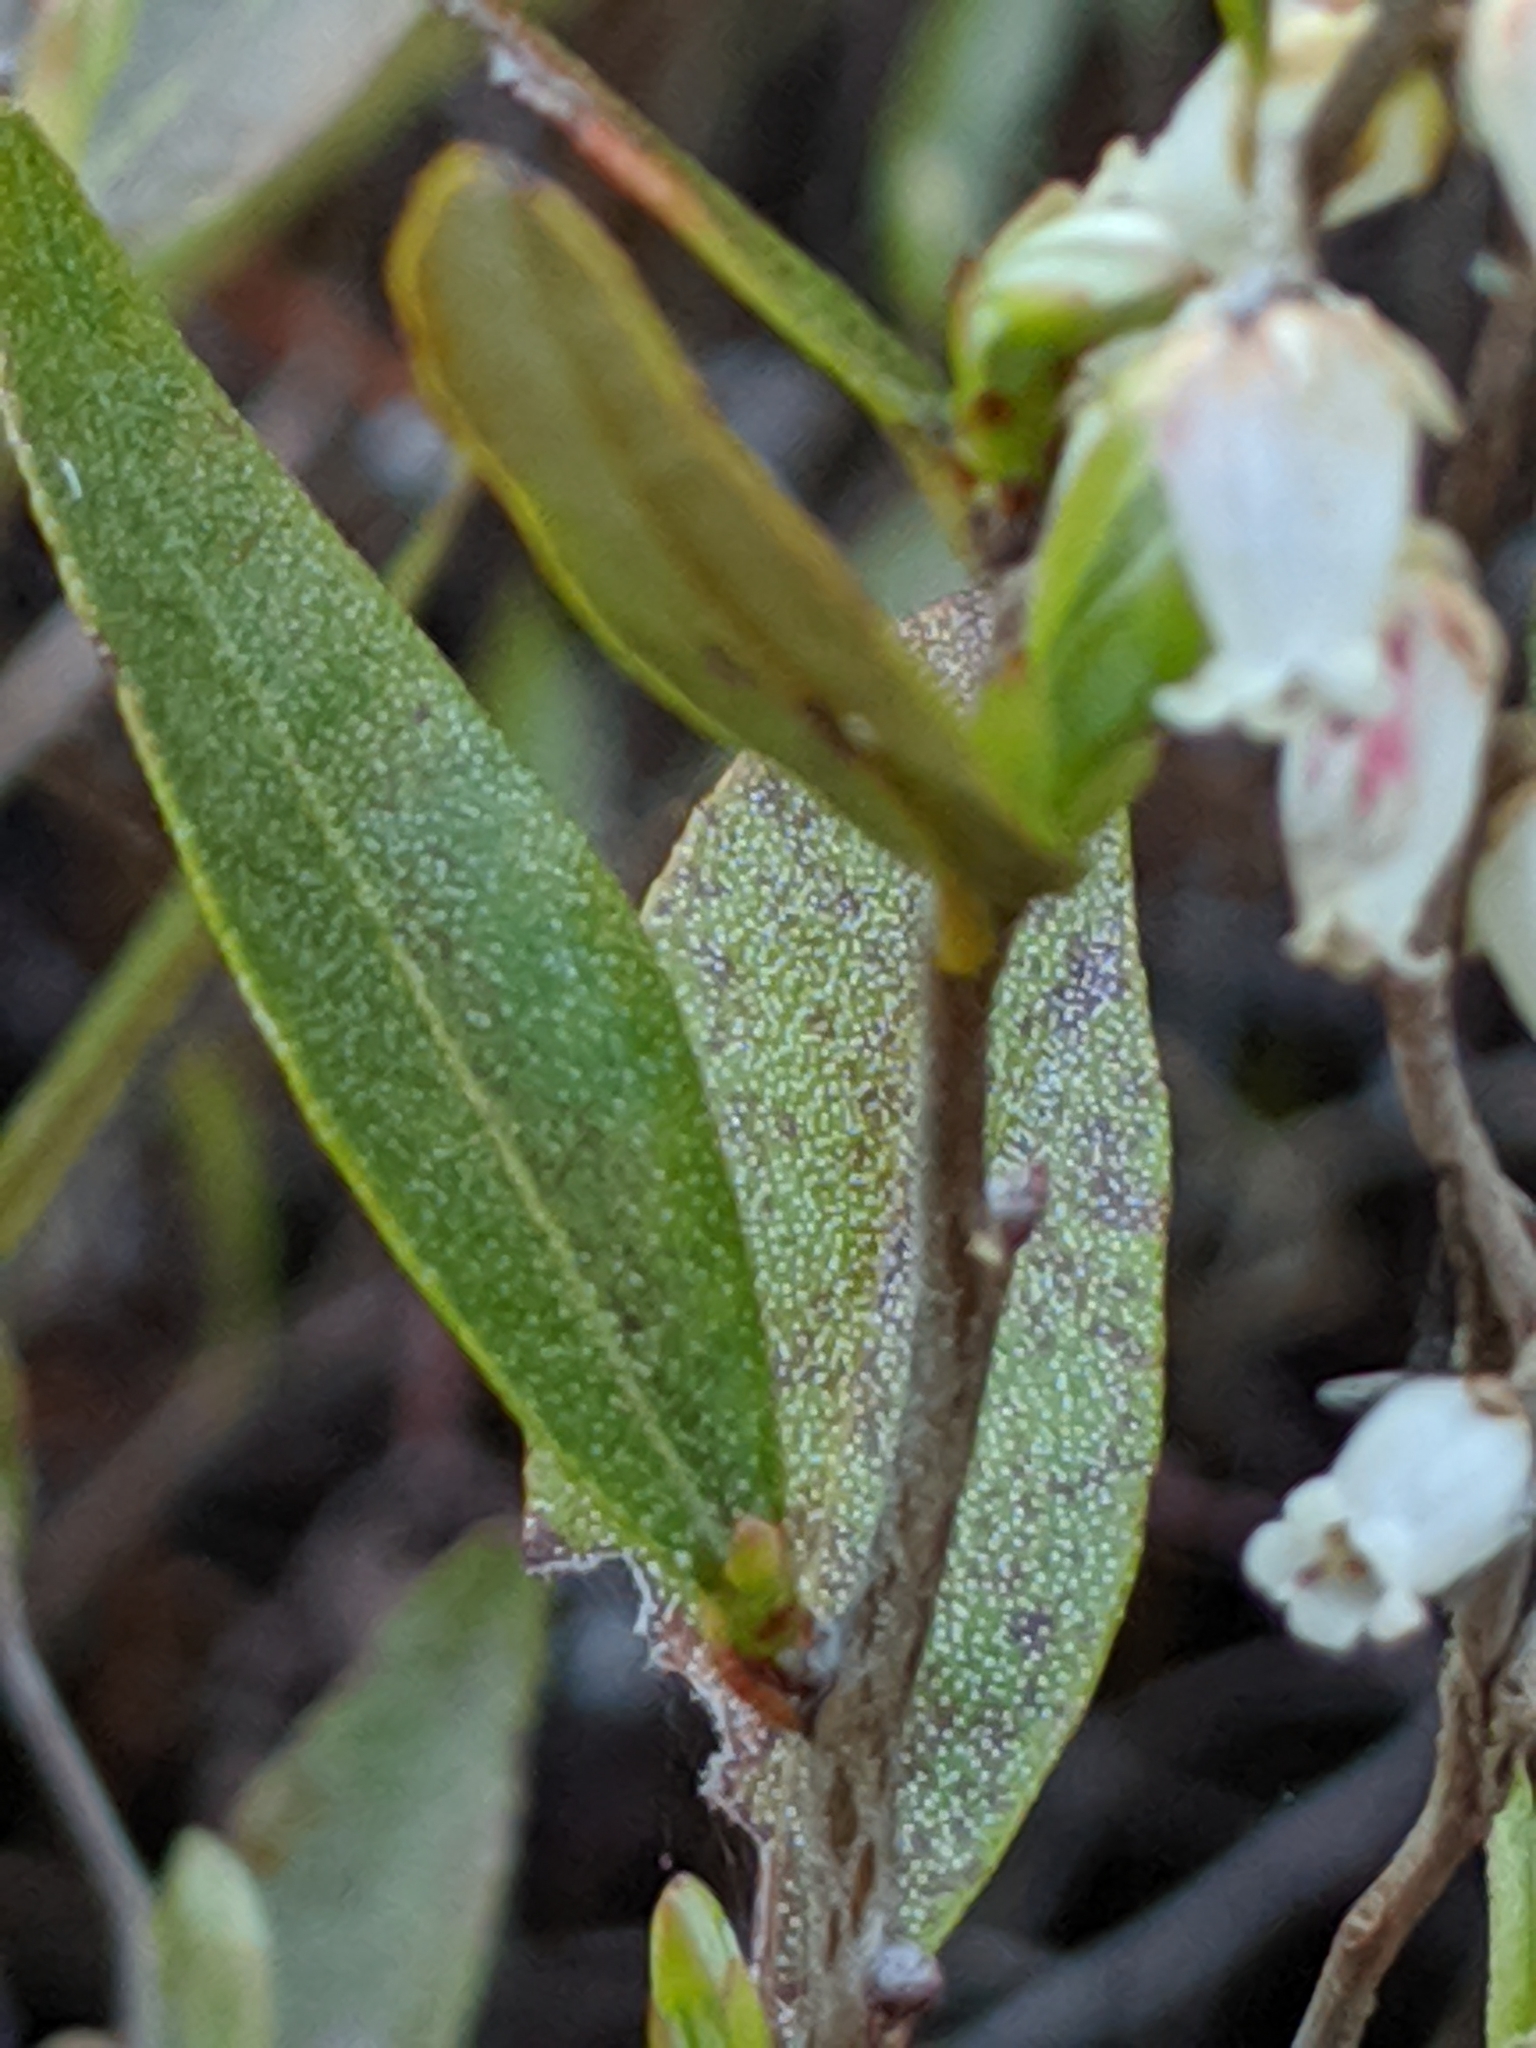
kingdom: Plantae
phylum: Tracheophyta
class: Magnoliopsida
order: Ericales
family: Ericaceae
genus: Chamaedaphne
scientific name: Chamaedaphne calyculata
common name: Leatherleaf
